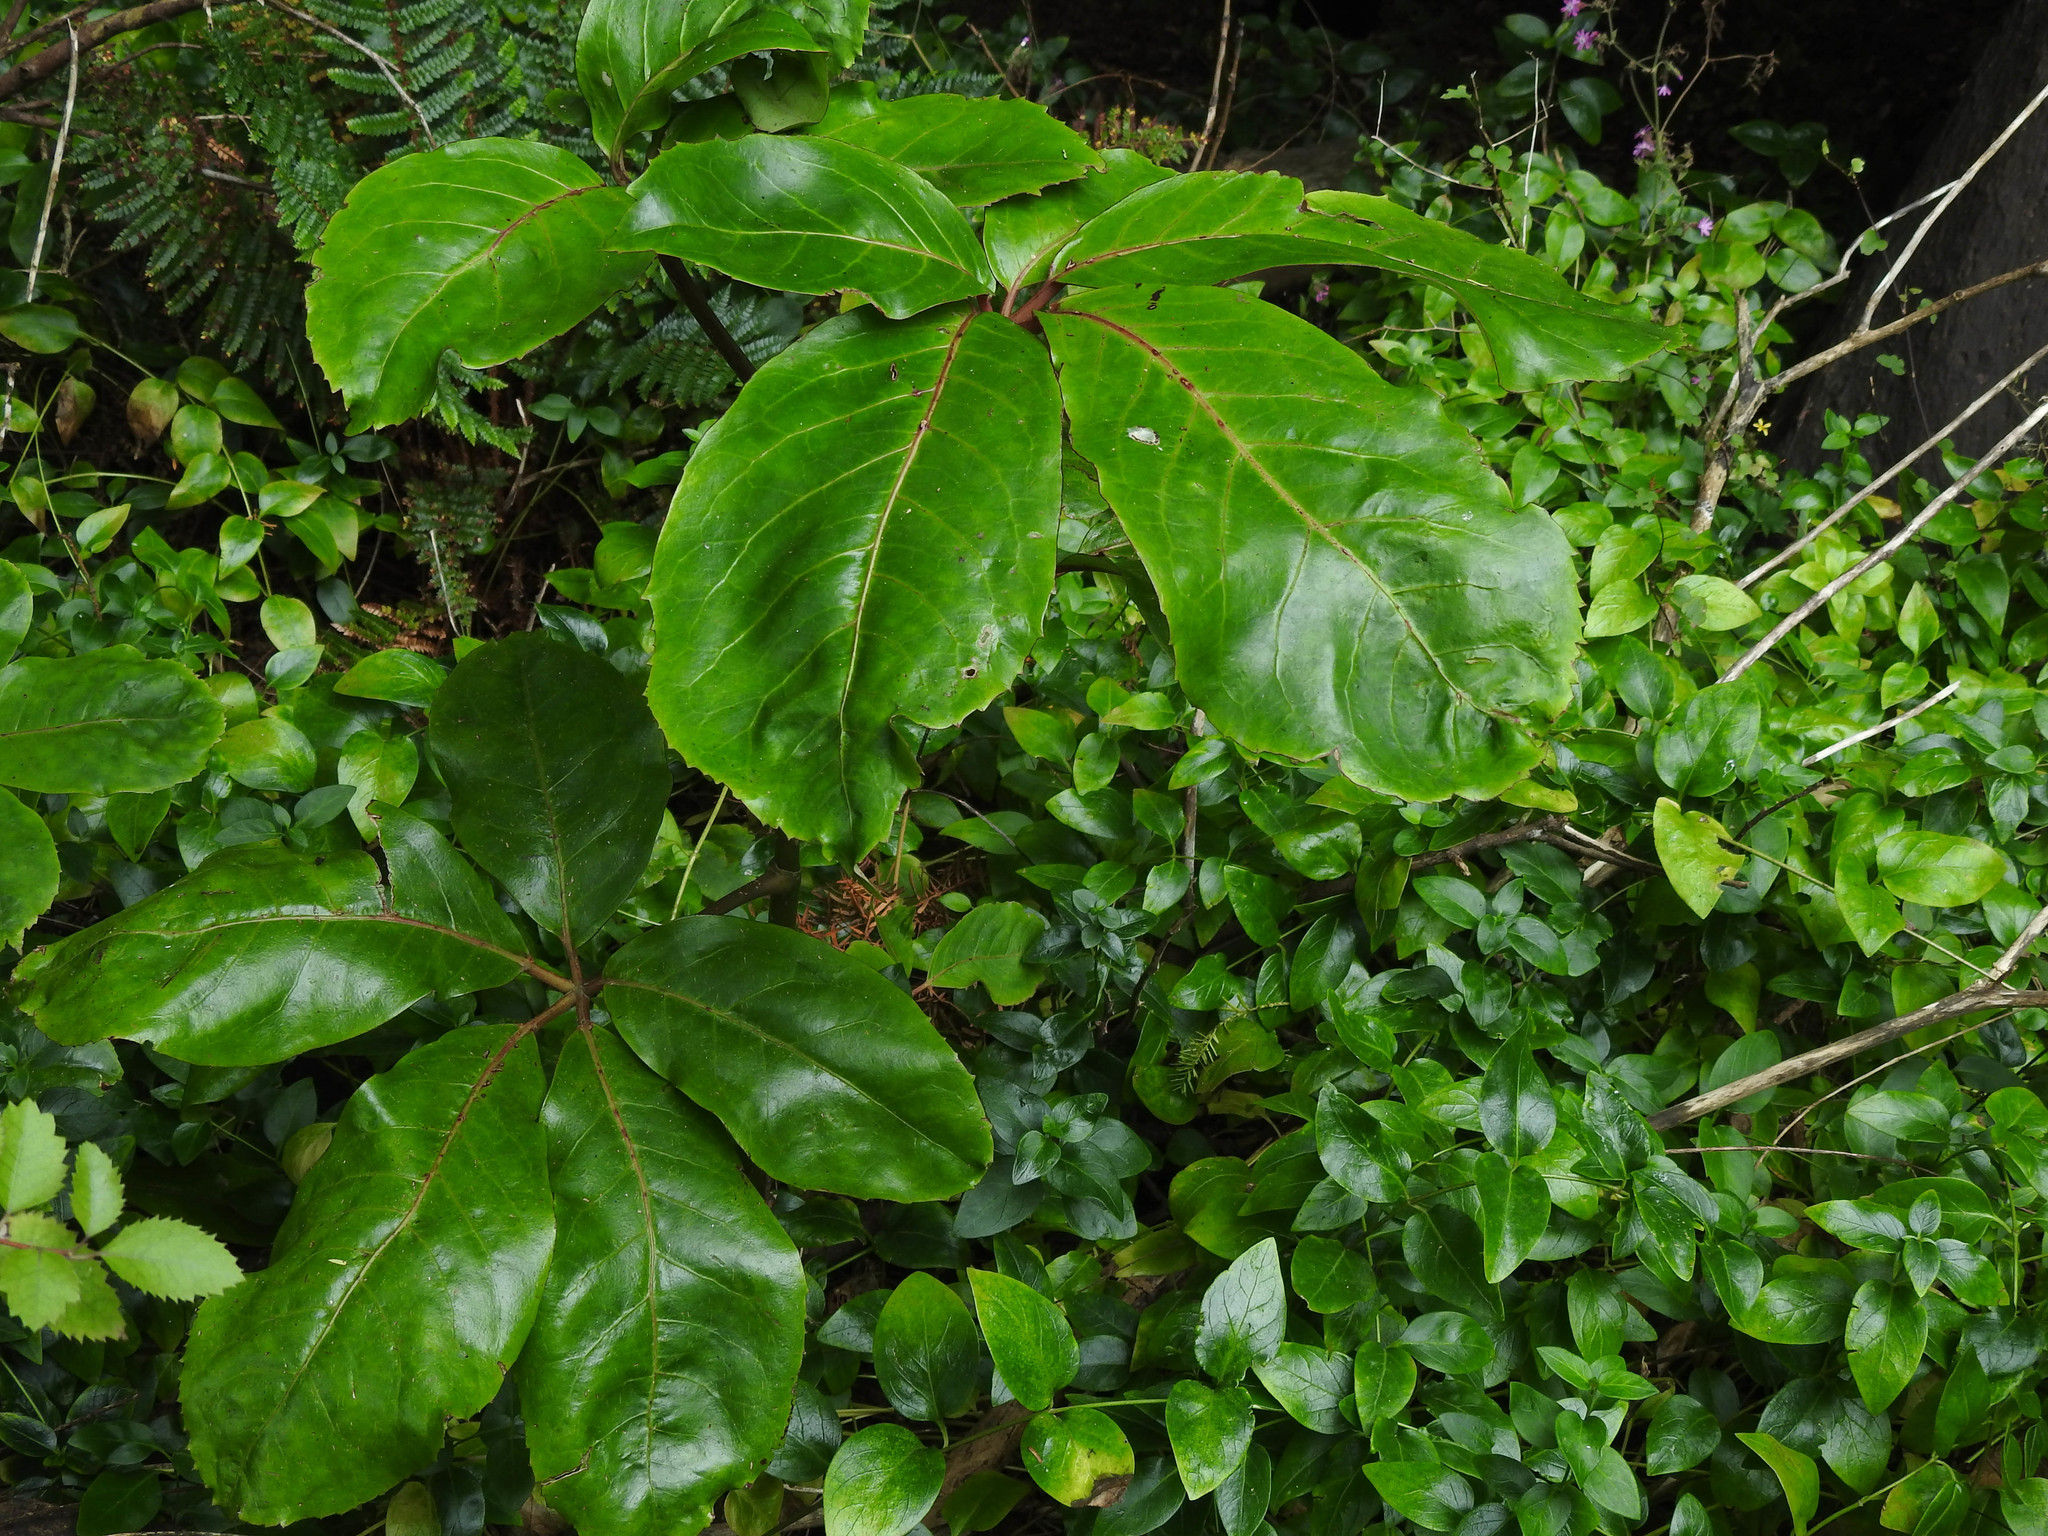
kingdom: Plantae
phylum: Tracheophyta
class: Magnoliopsida
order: Apiales
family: Araliaceae
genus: Neopanax
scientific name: Neopanax laetus
